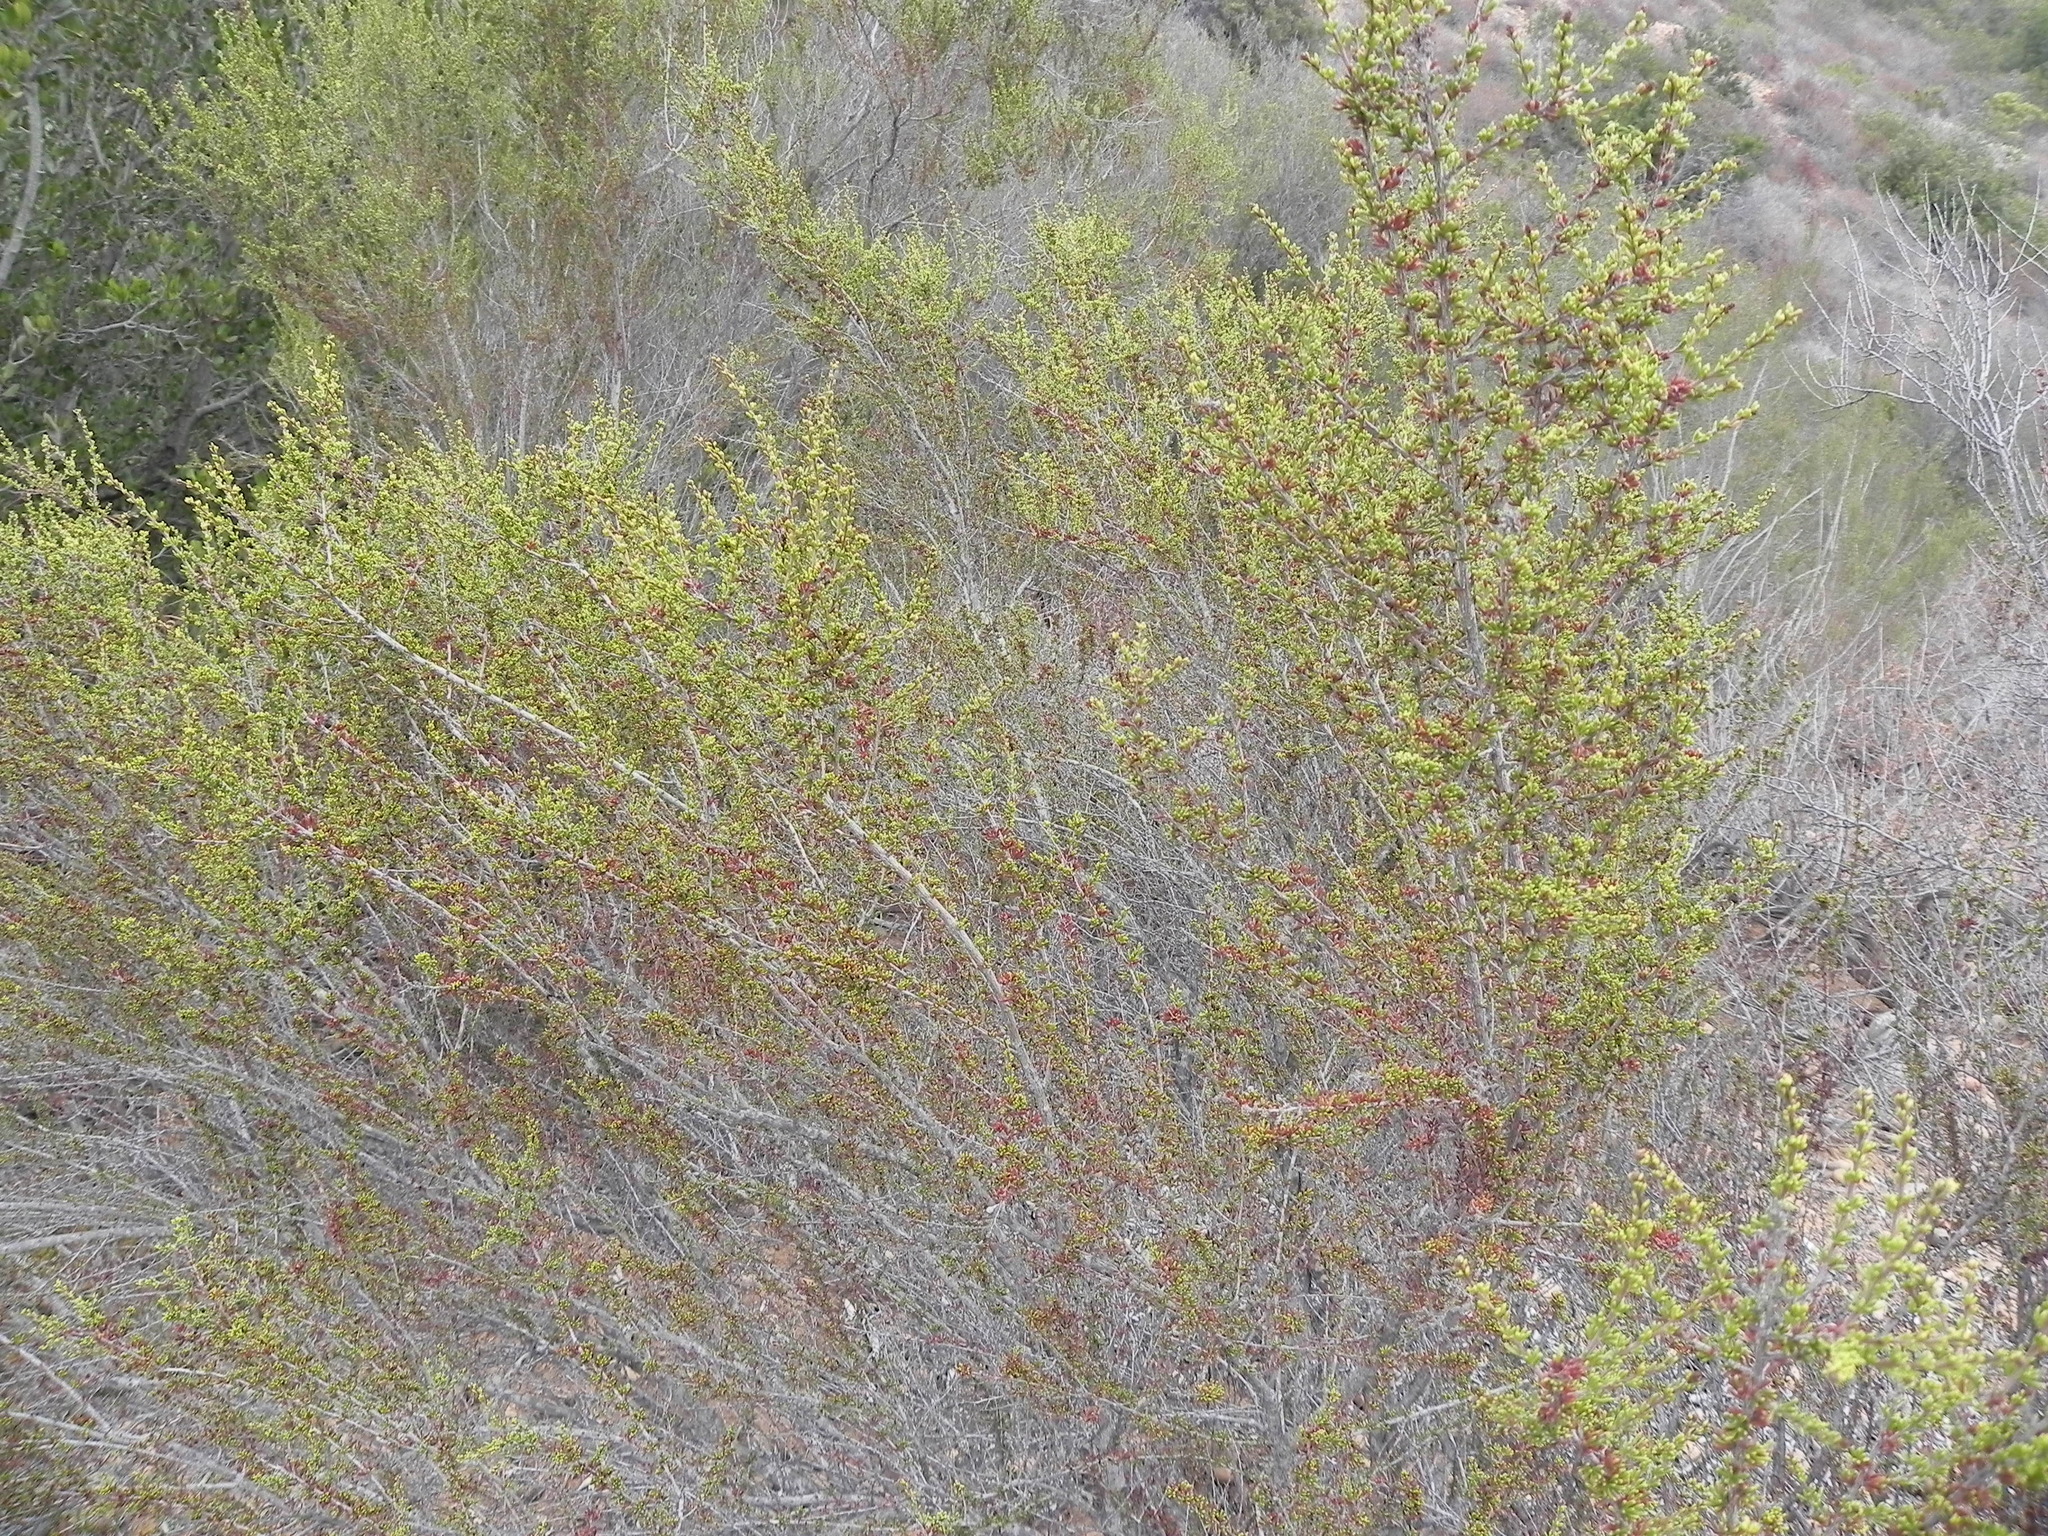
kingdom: Plantae
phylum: Tracheophyta
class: Magnoliopsida
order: Rosales
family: Rosaceae
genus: Adenostoma
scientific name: Adenostoma fasciculatum
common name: Chamise
